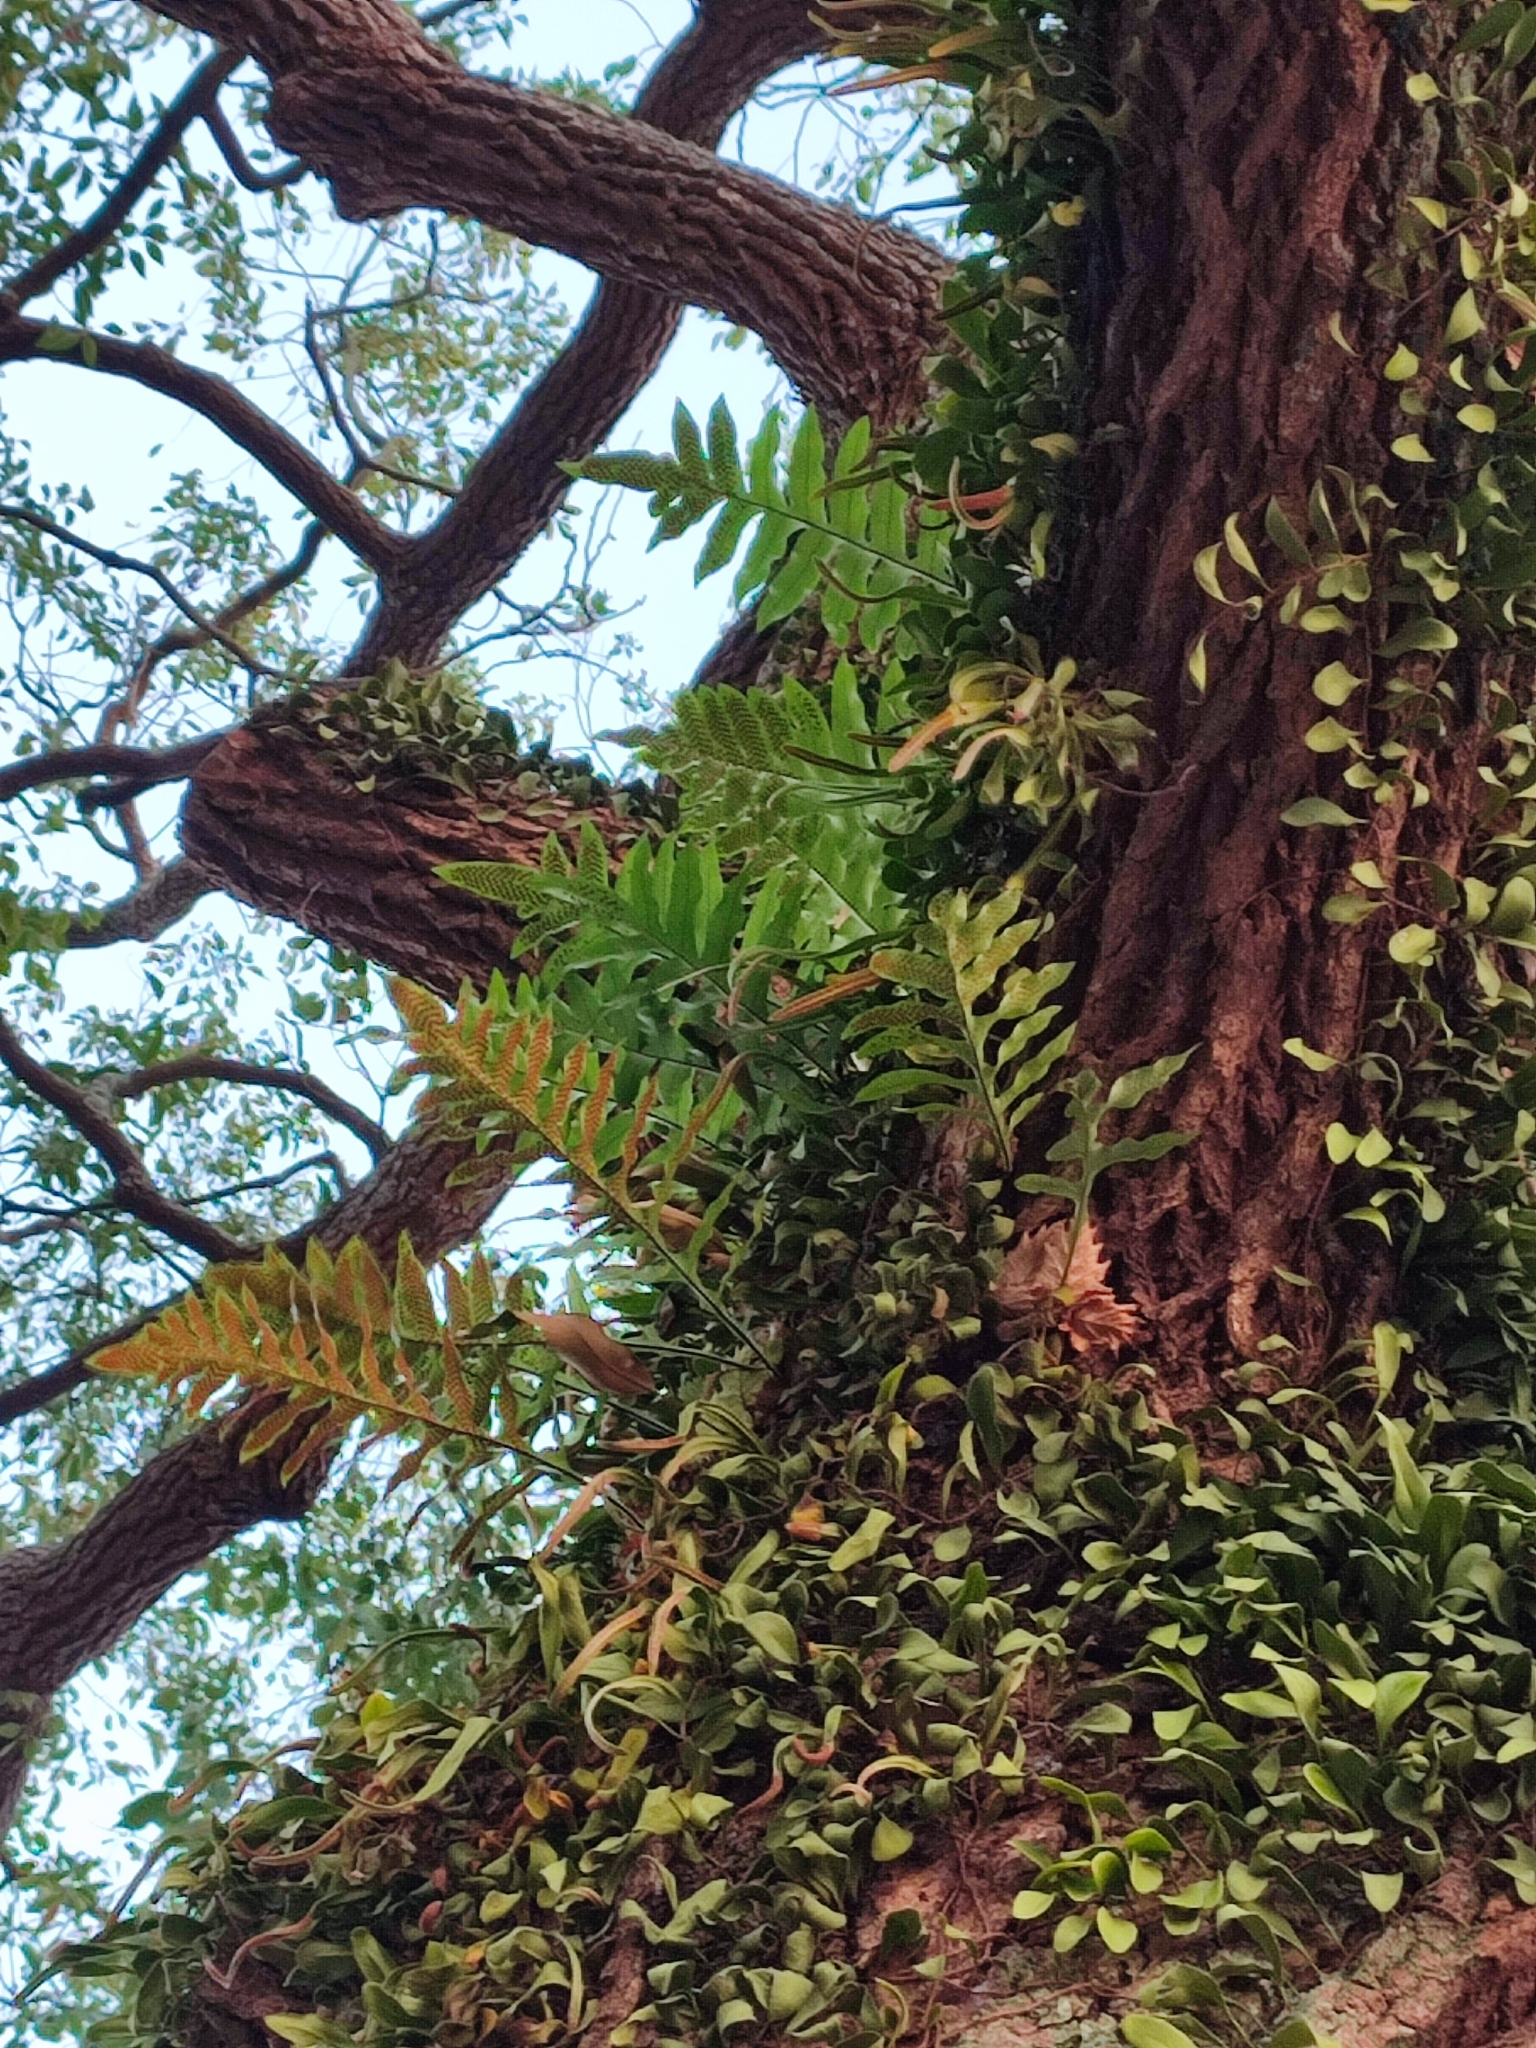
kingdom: Plantae
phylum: Tracheophyta
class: Polypodiopsida
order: Polypodiales
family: Polypodiaceae
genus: Drynaria
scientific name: Drynaria roosii
